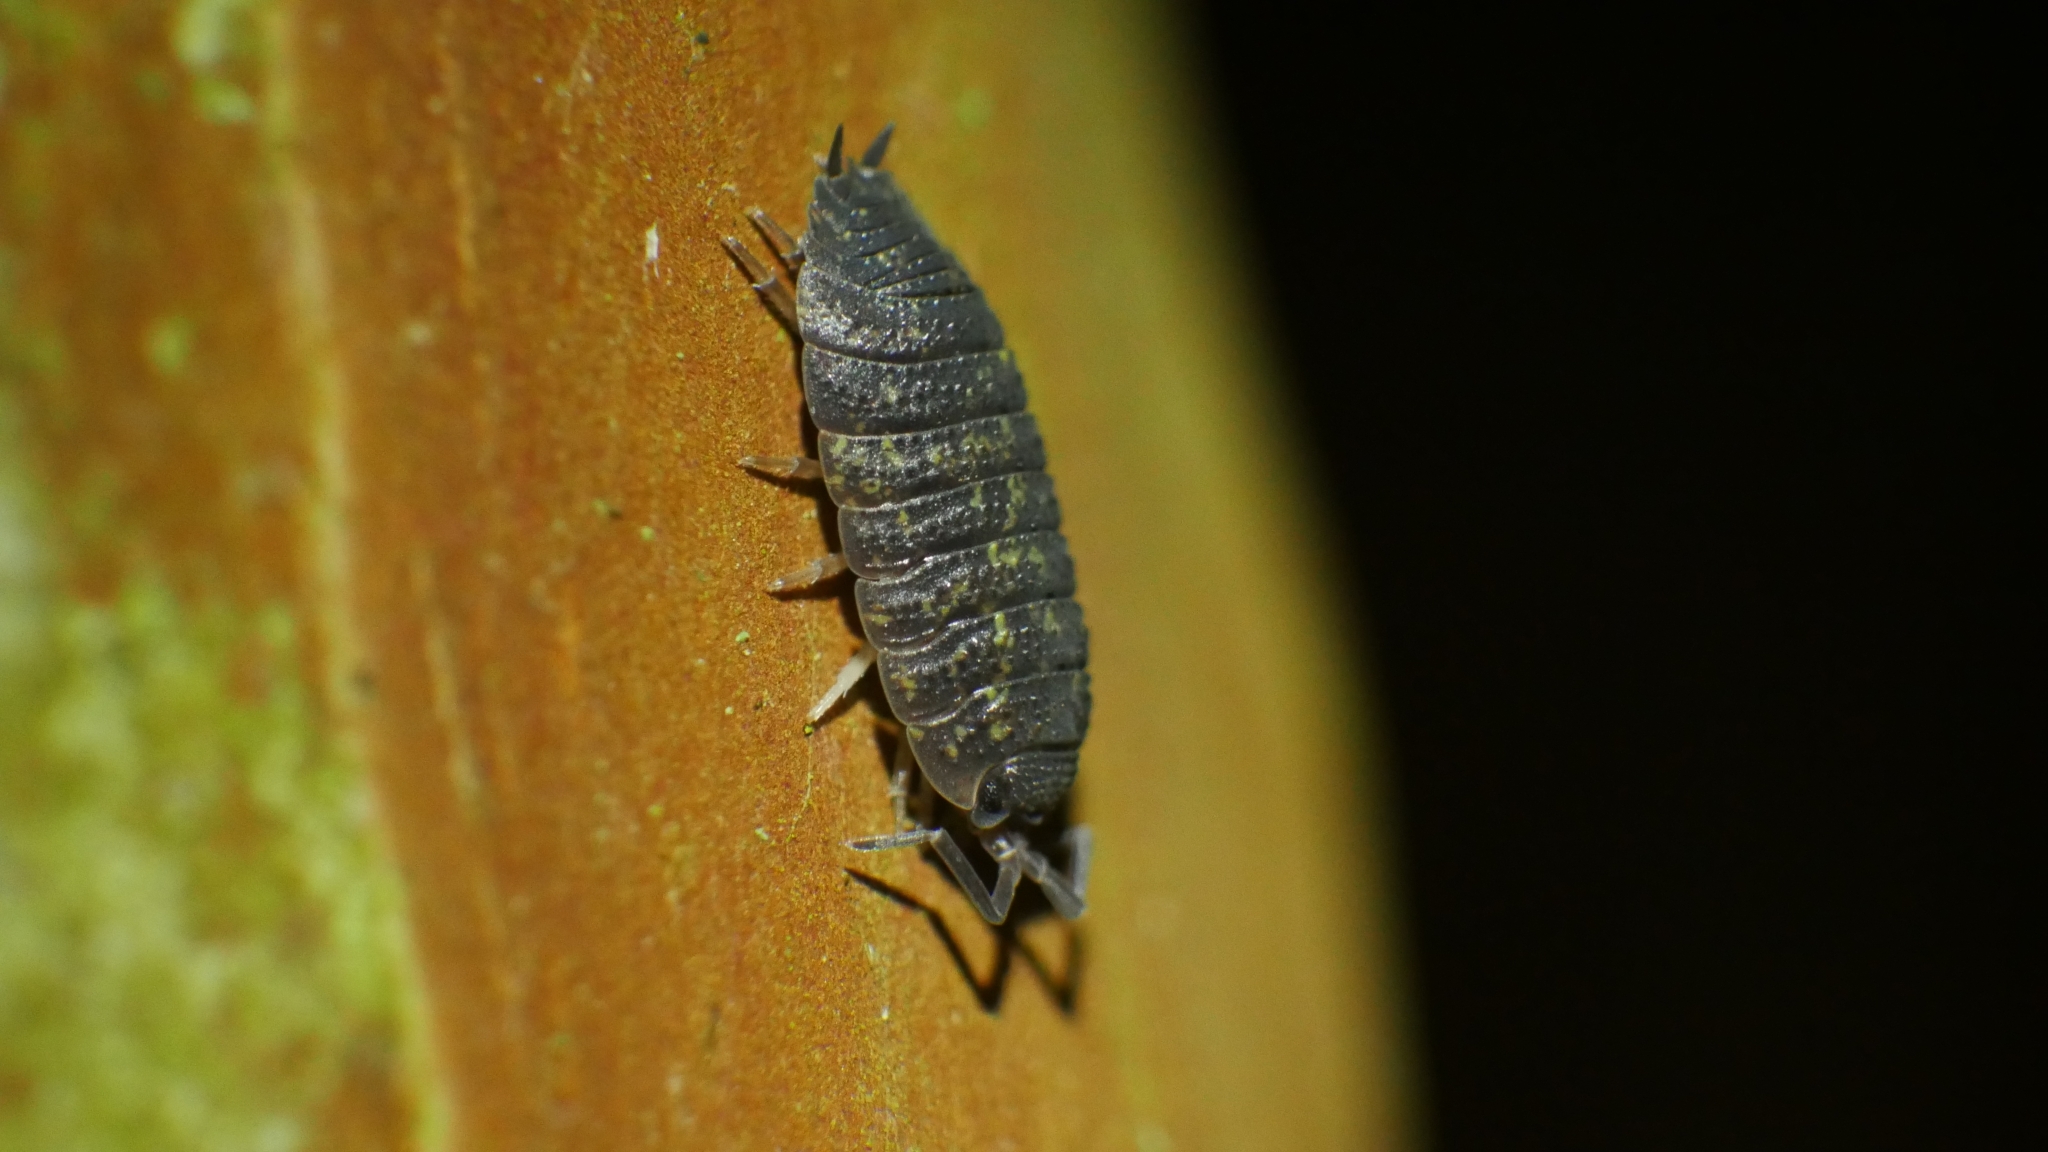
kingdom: Animalia
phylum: Arthropoda
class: Malacostraca
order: Isopoda
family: Porcellionidae
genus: Porcellio
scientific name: Porcellio scaber
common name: Common rough woodlouse
